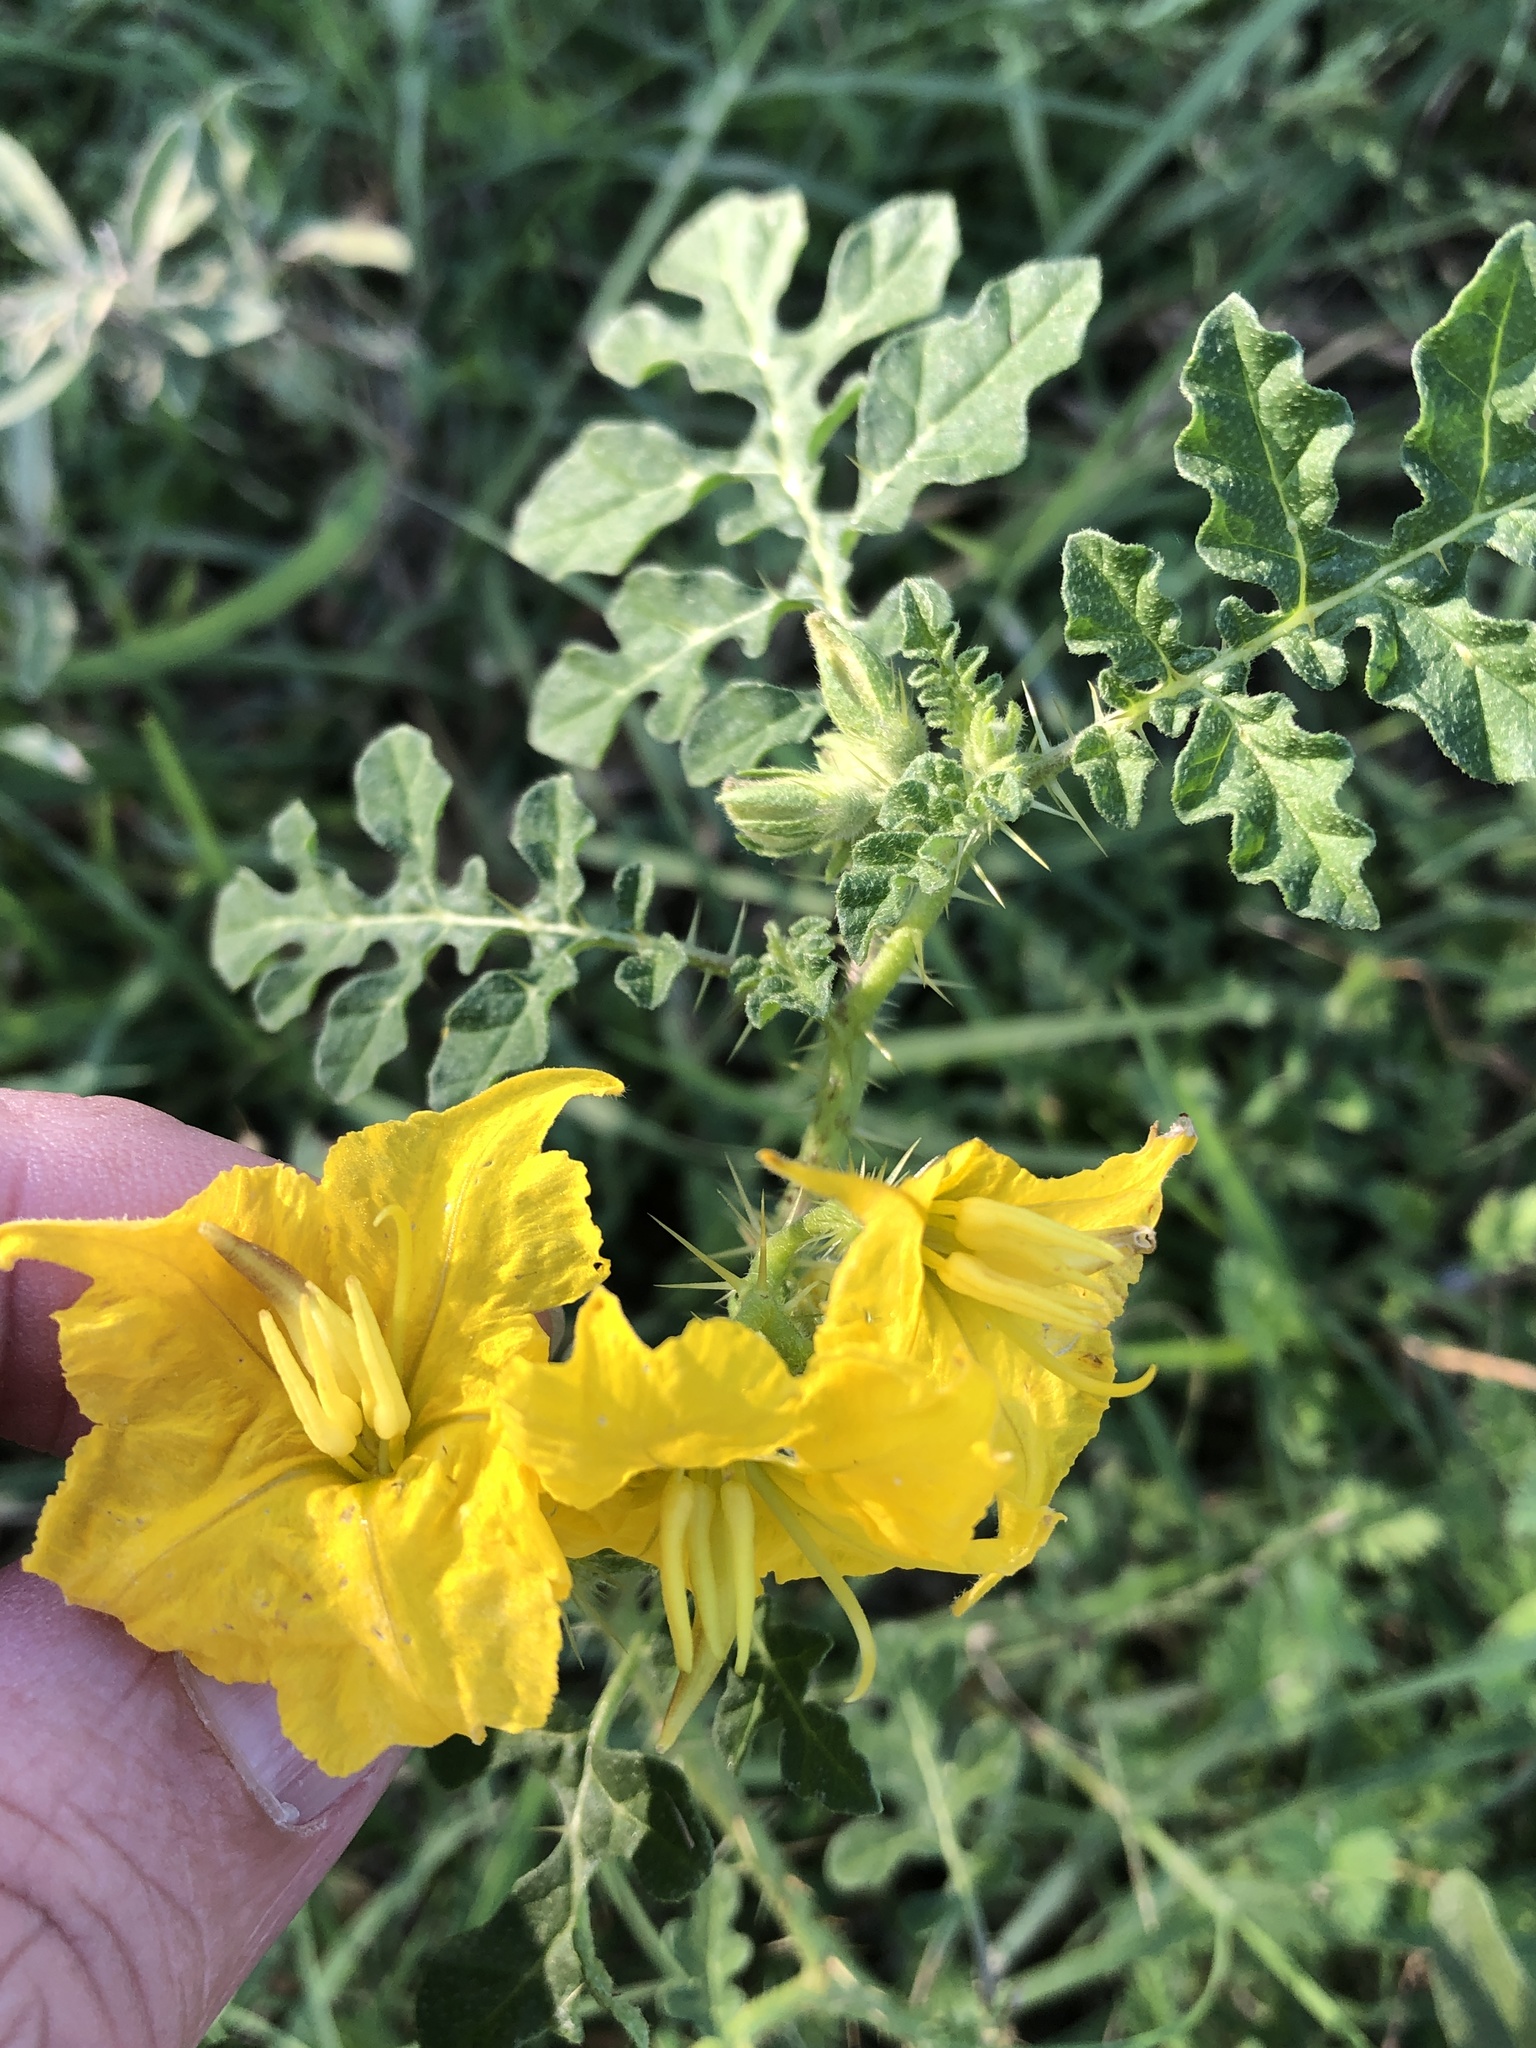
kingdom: Plantae
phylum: Tracheophyta
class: Magnoliopsida
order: Solanales
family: Solanaceae
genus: Solanum
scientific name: Solanum angustifolium
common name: Buffalobur nightshade
